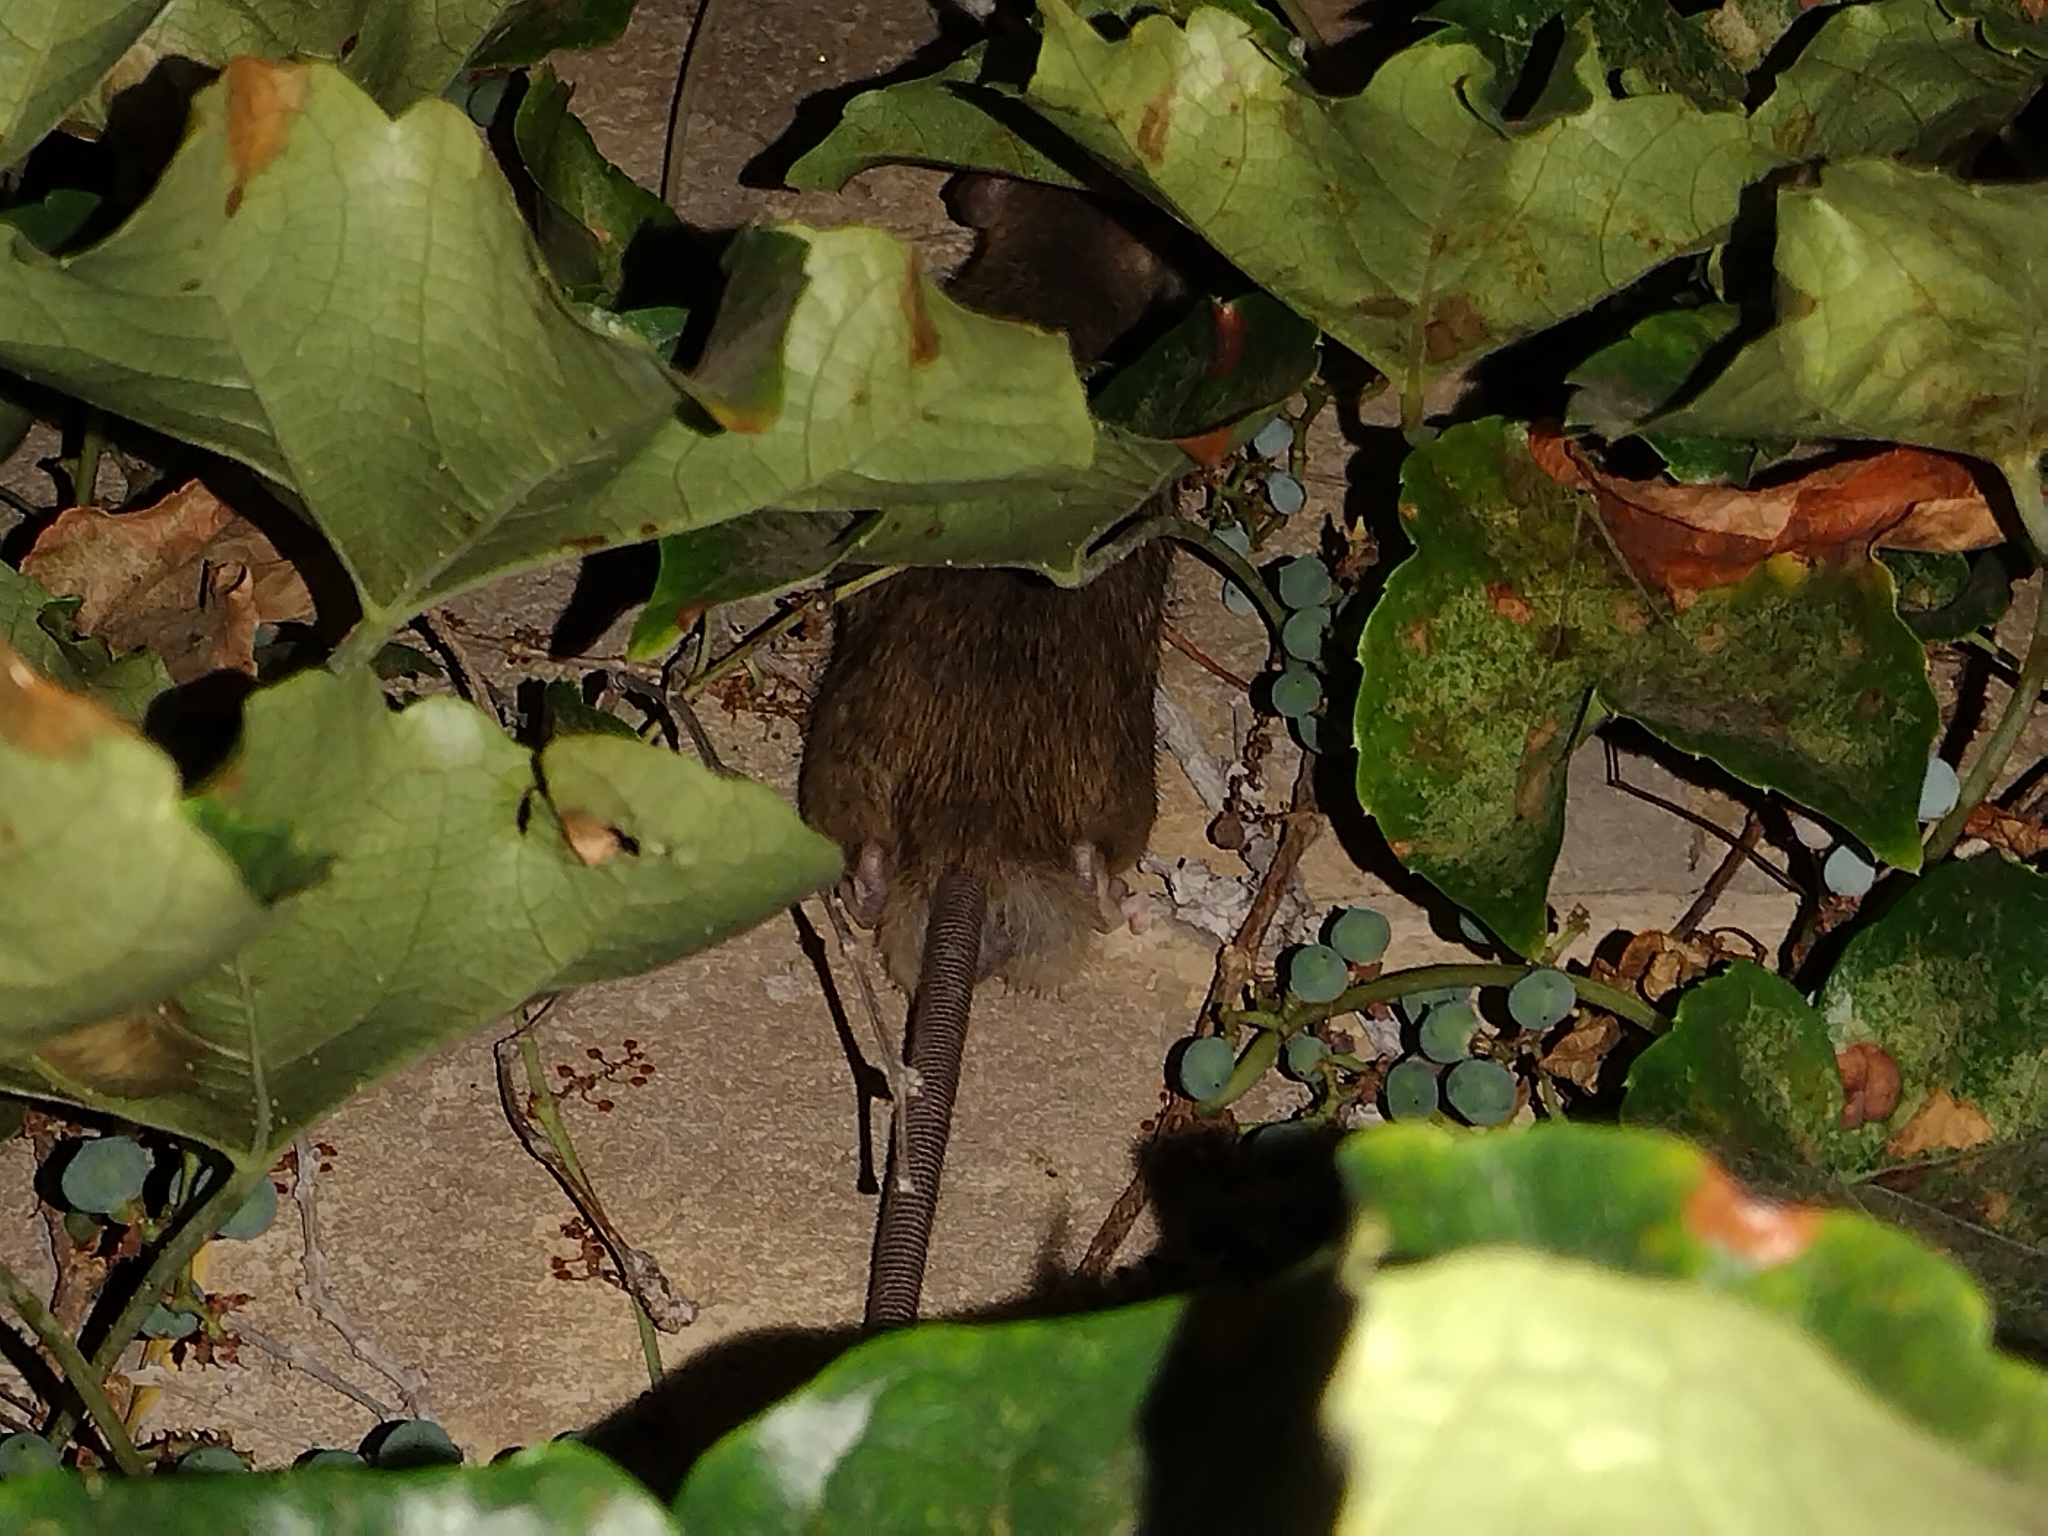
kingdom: Animalia
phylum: Chordata
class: Mammalia
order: Rodentia
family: Muridae
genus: Rattus
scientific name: Rattus rattus
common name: Black rat
